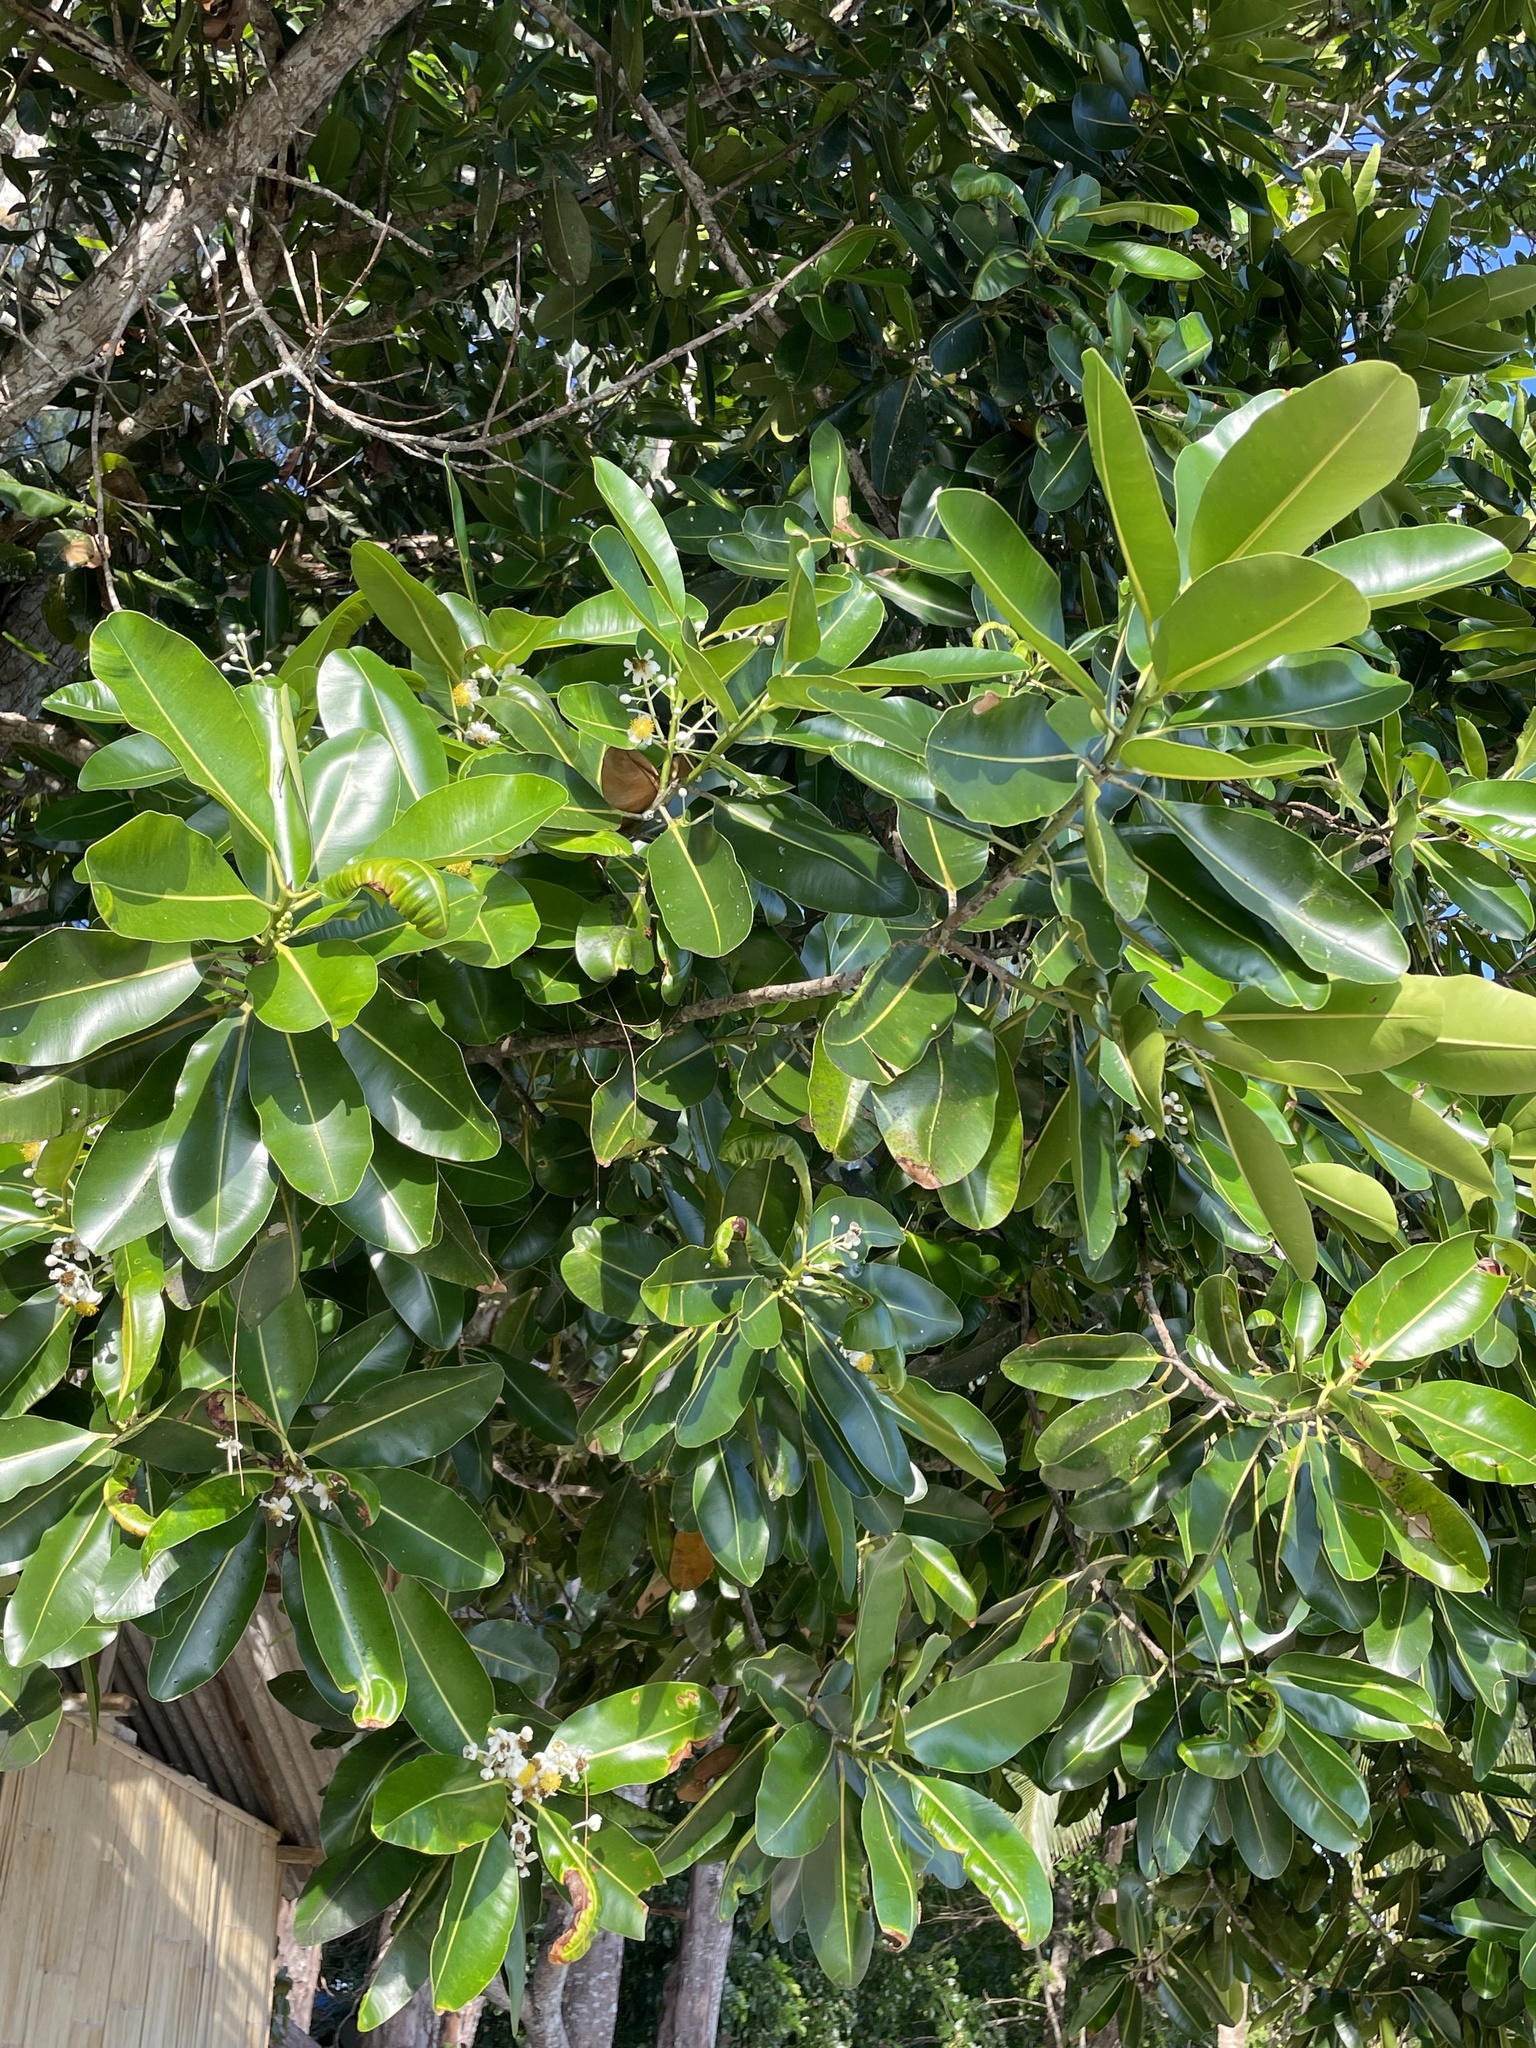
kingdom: Plantae
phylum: Tracheophyta
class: Magnoliopsida
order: Malpighiales
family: Calophyllaceae
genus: Calophyllum
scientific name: Calophyllum inophyllum
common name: Alexandrian laurel
